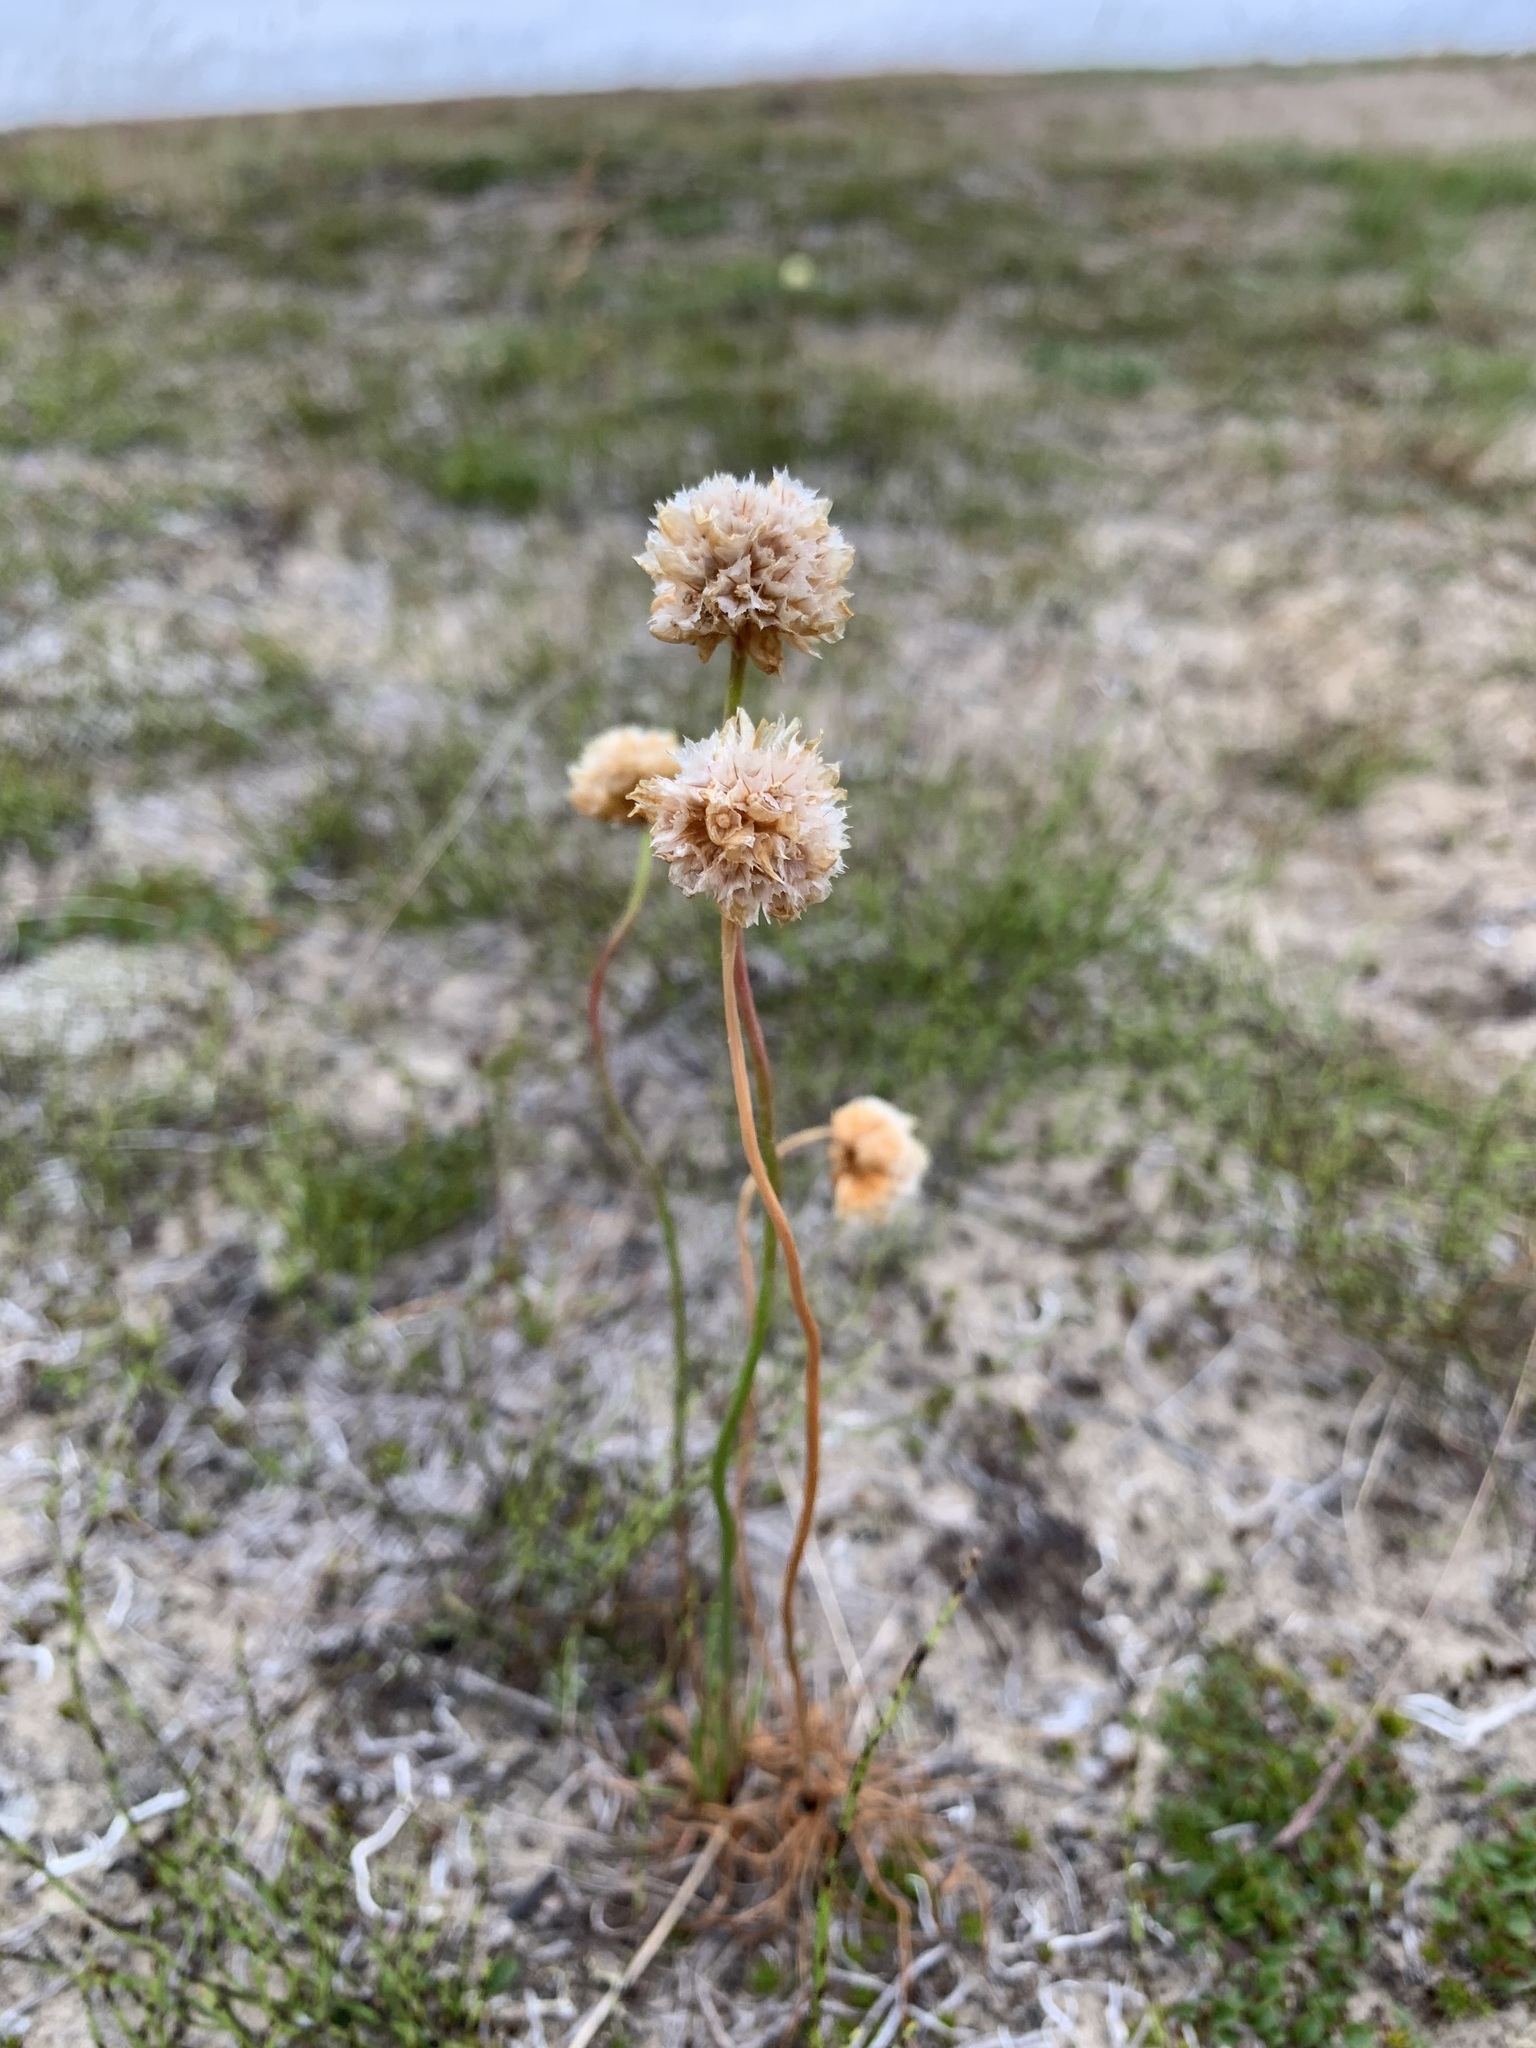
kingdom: Plantae
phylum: Tracheophyta
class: Magnoliopsida
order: Caryophyllales
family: Plumbaginaceae
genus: Armeria
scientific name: Armeria maritima
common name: Thrift
